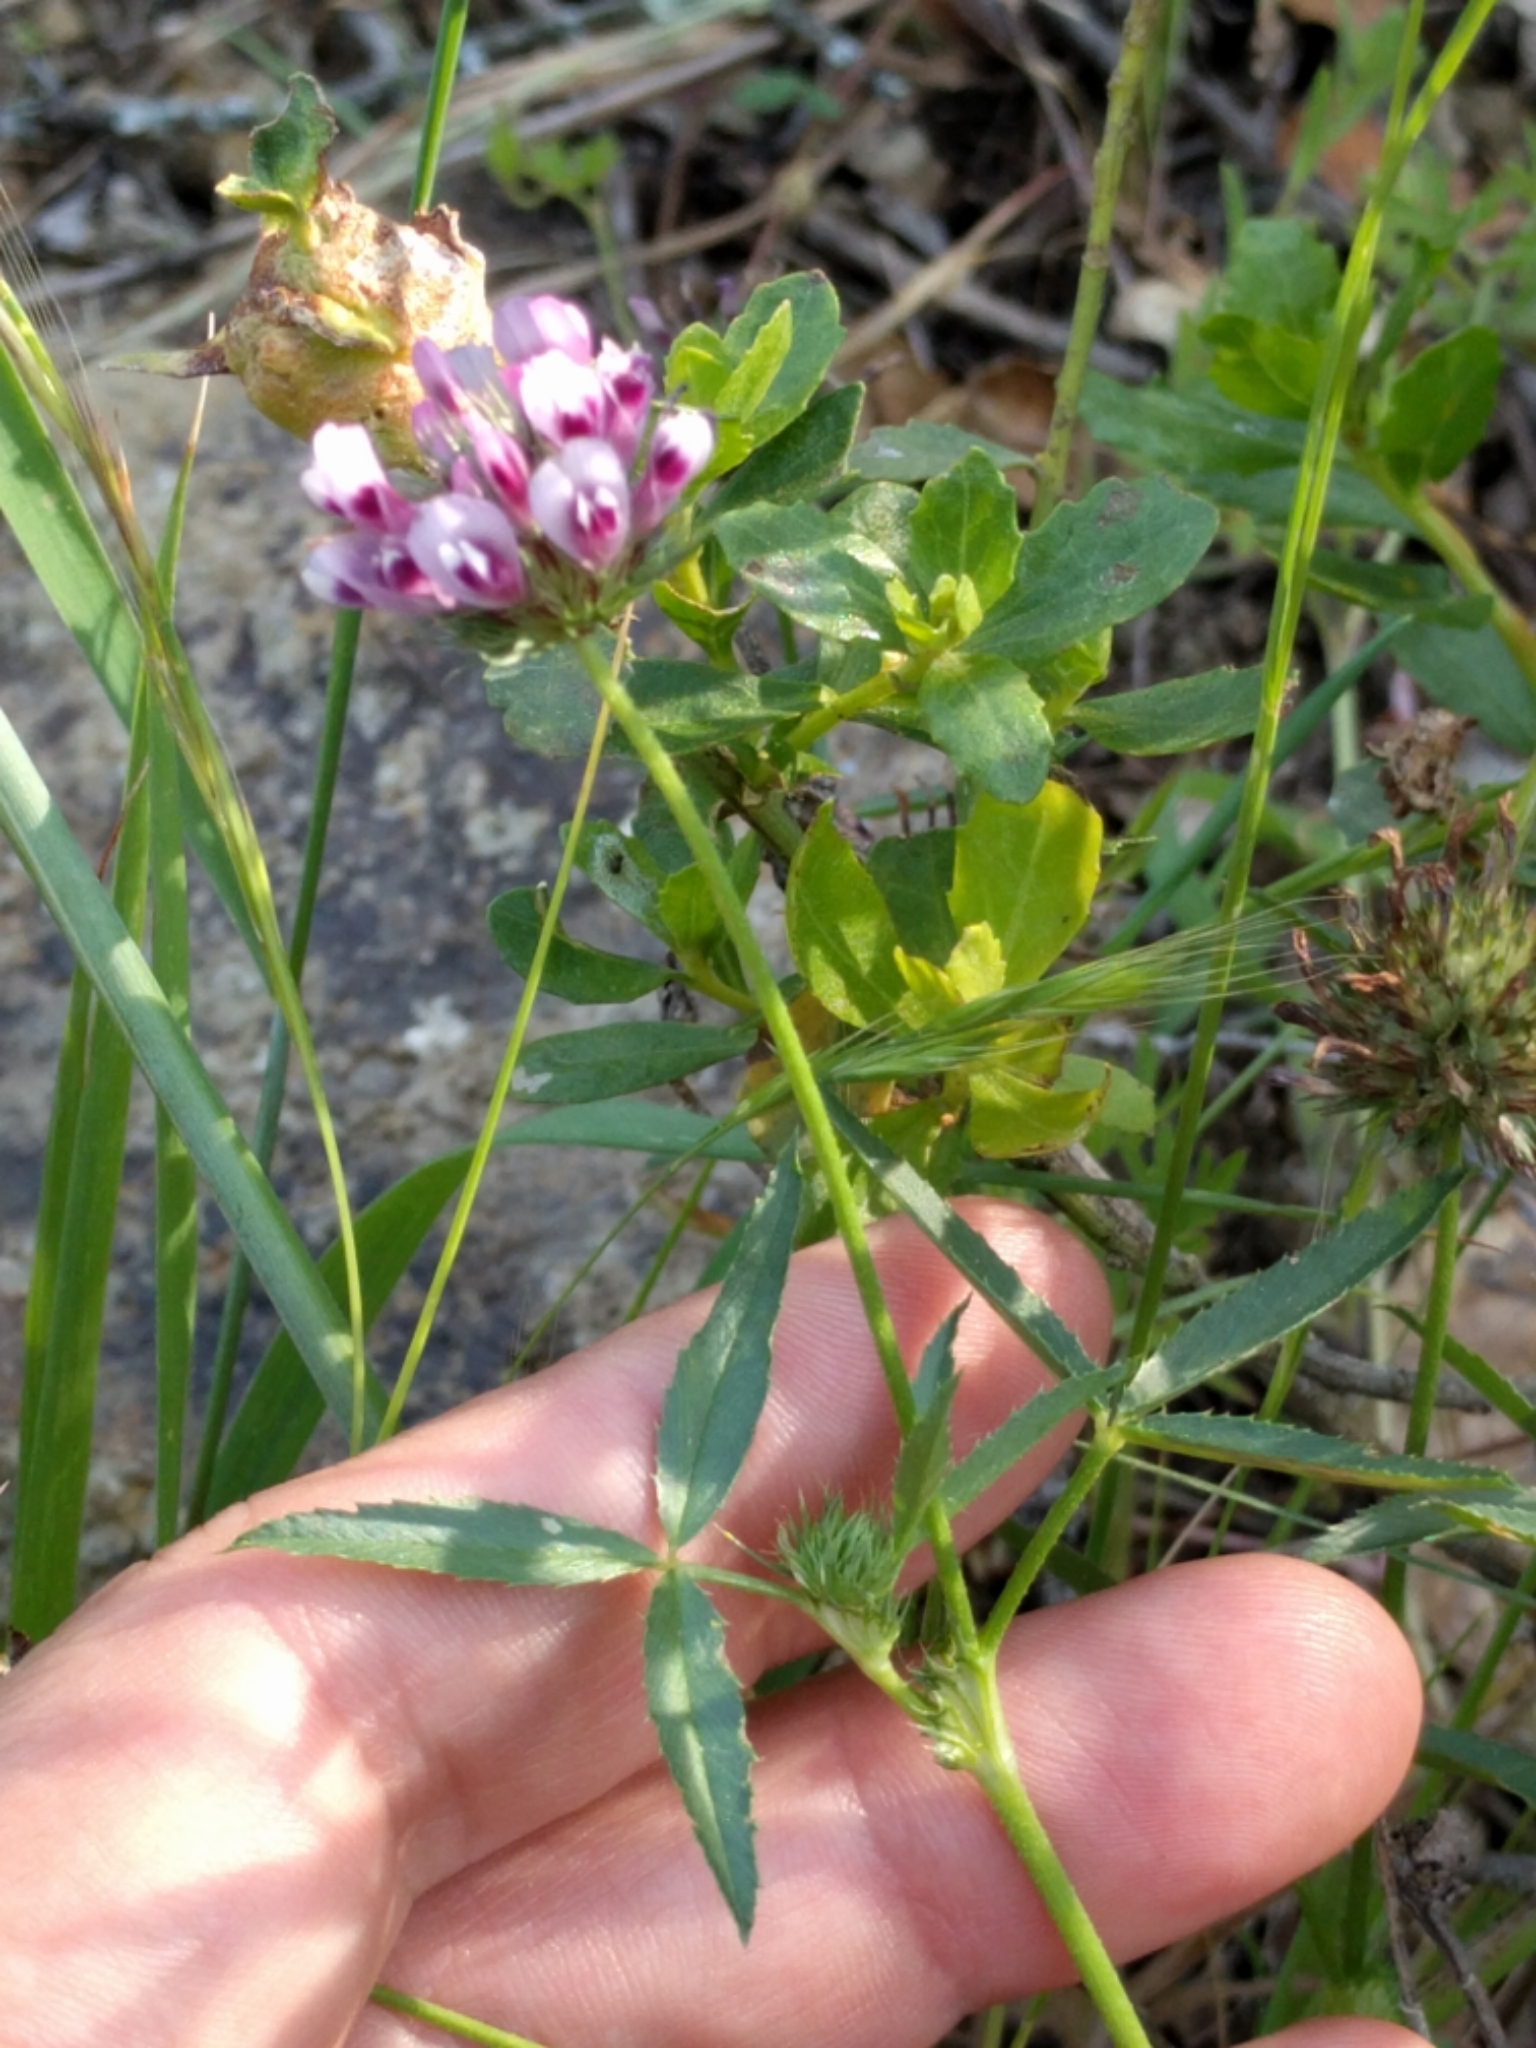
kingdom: Plantae
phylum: Tracheophyta
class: Magnoliopsida
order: Fabales
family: Fabaceae
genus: Trifolium
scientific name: Trifolium willdenovii
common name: Tomcat clover
